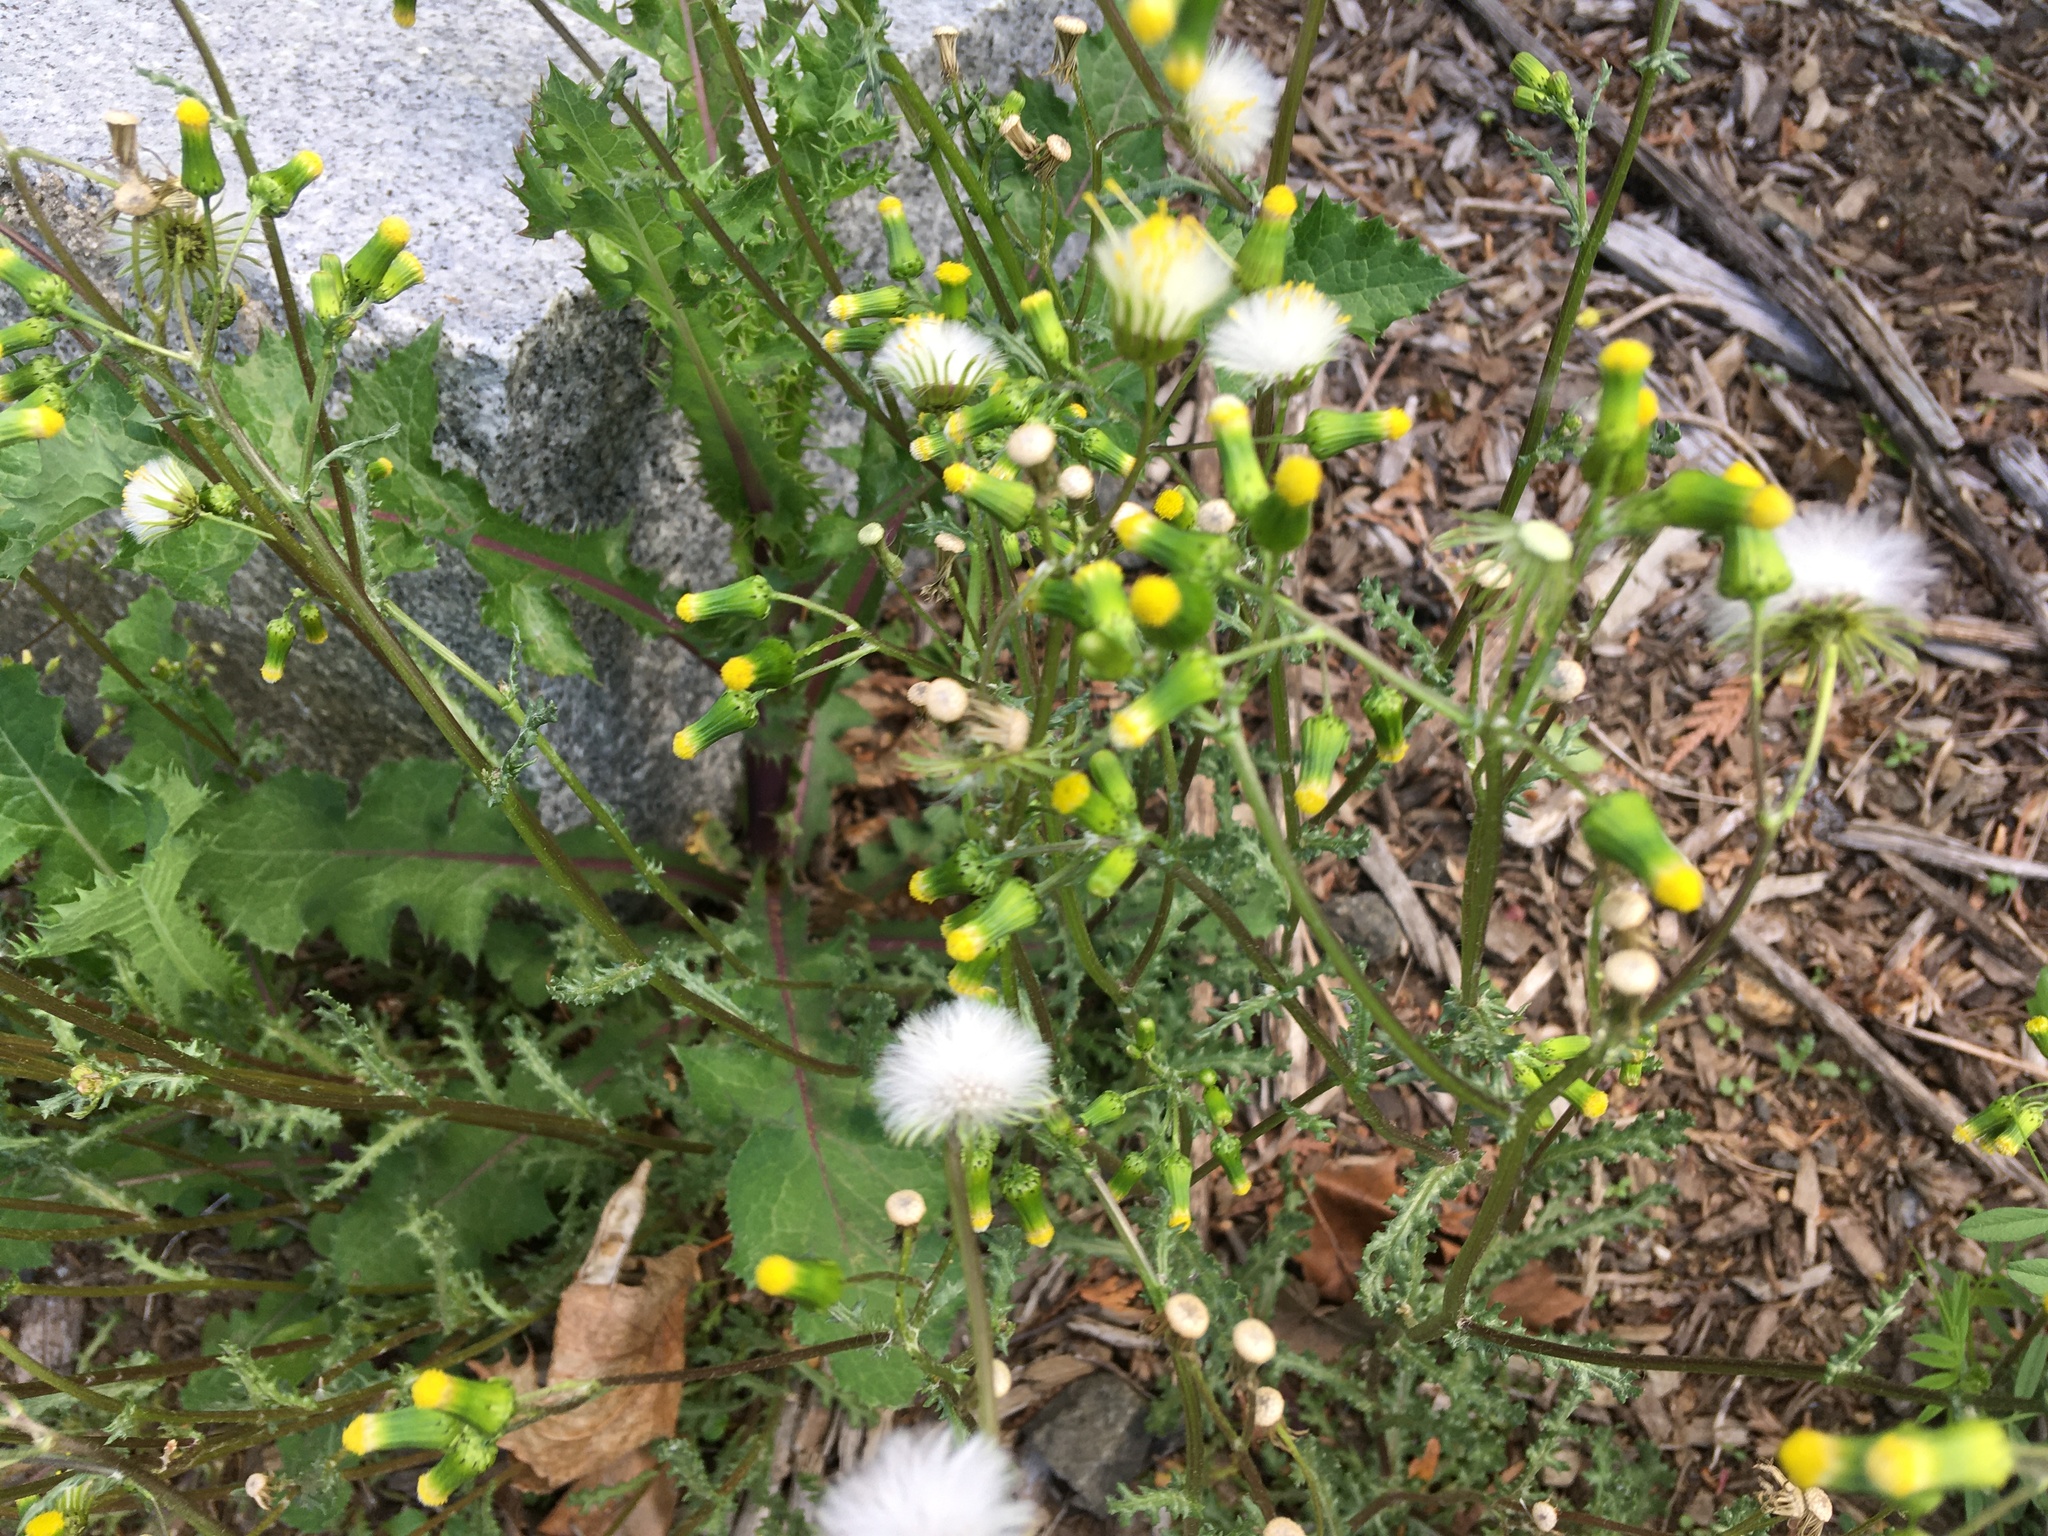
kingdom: Plantae
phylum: Tracheophyta
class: Magnoliopsida
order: Asterales
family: Asteraceae
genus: Senecio
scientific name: Senecio vulgaris
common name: Old-man-in-the-spring
